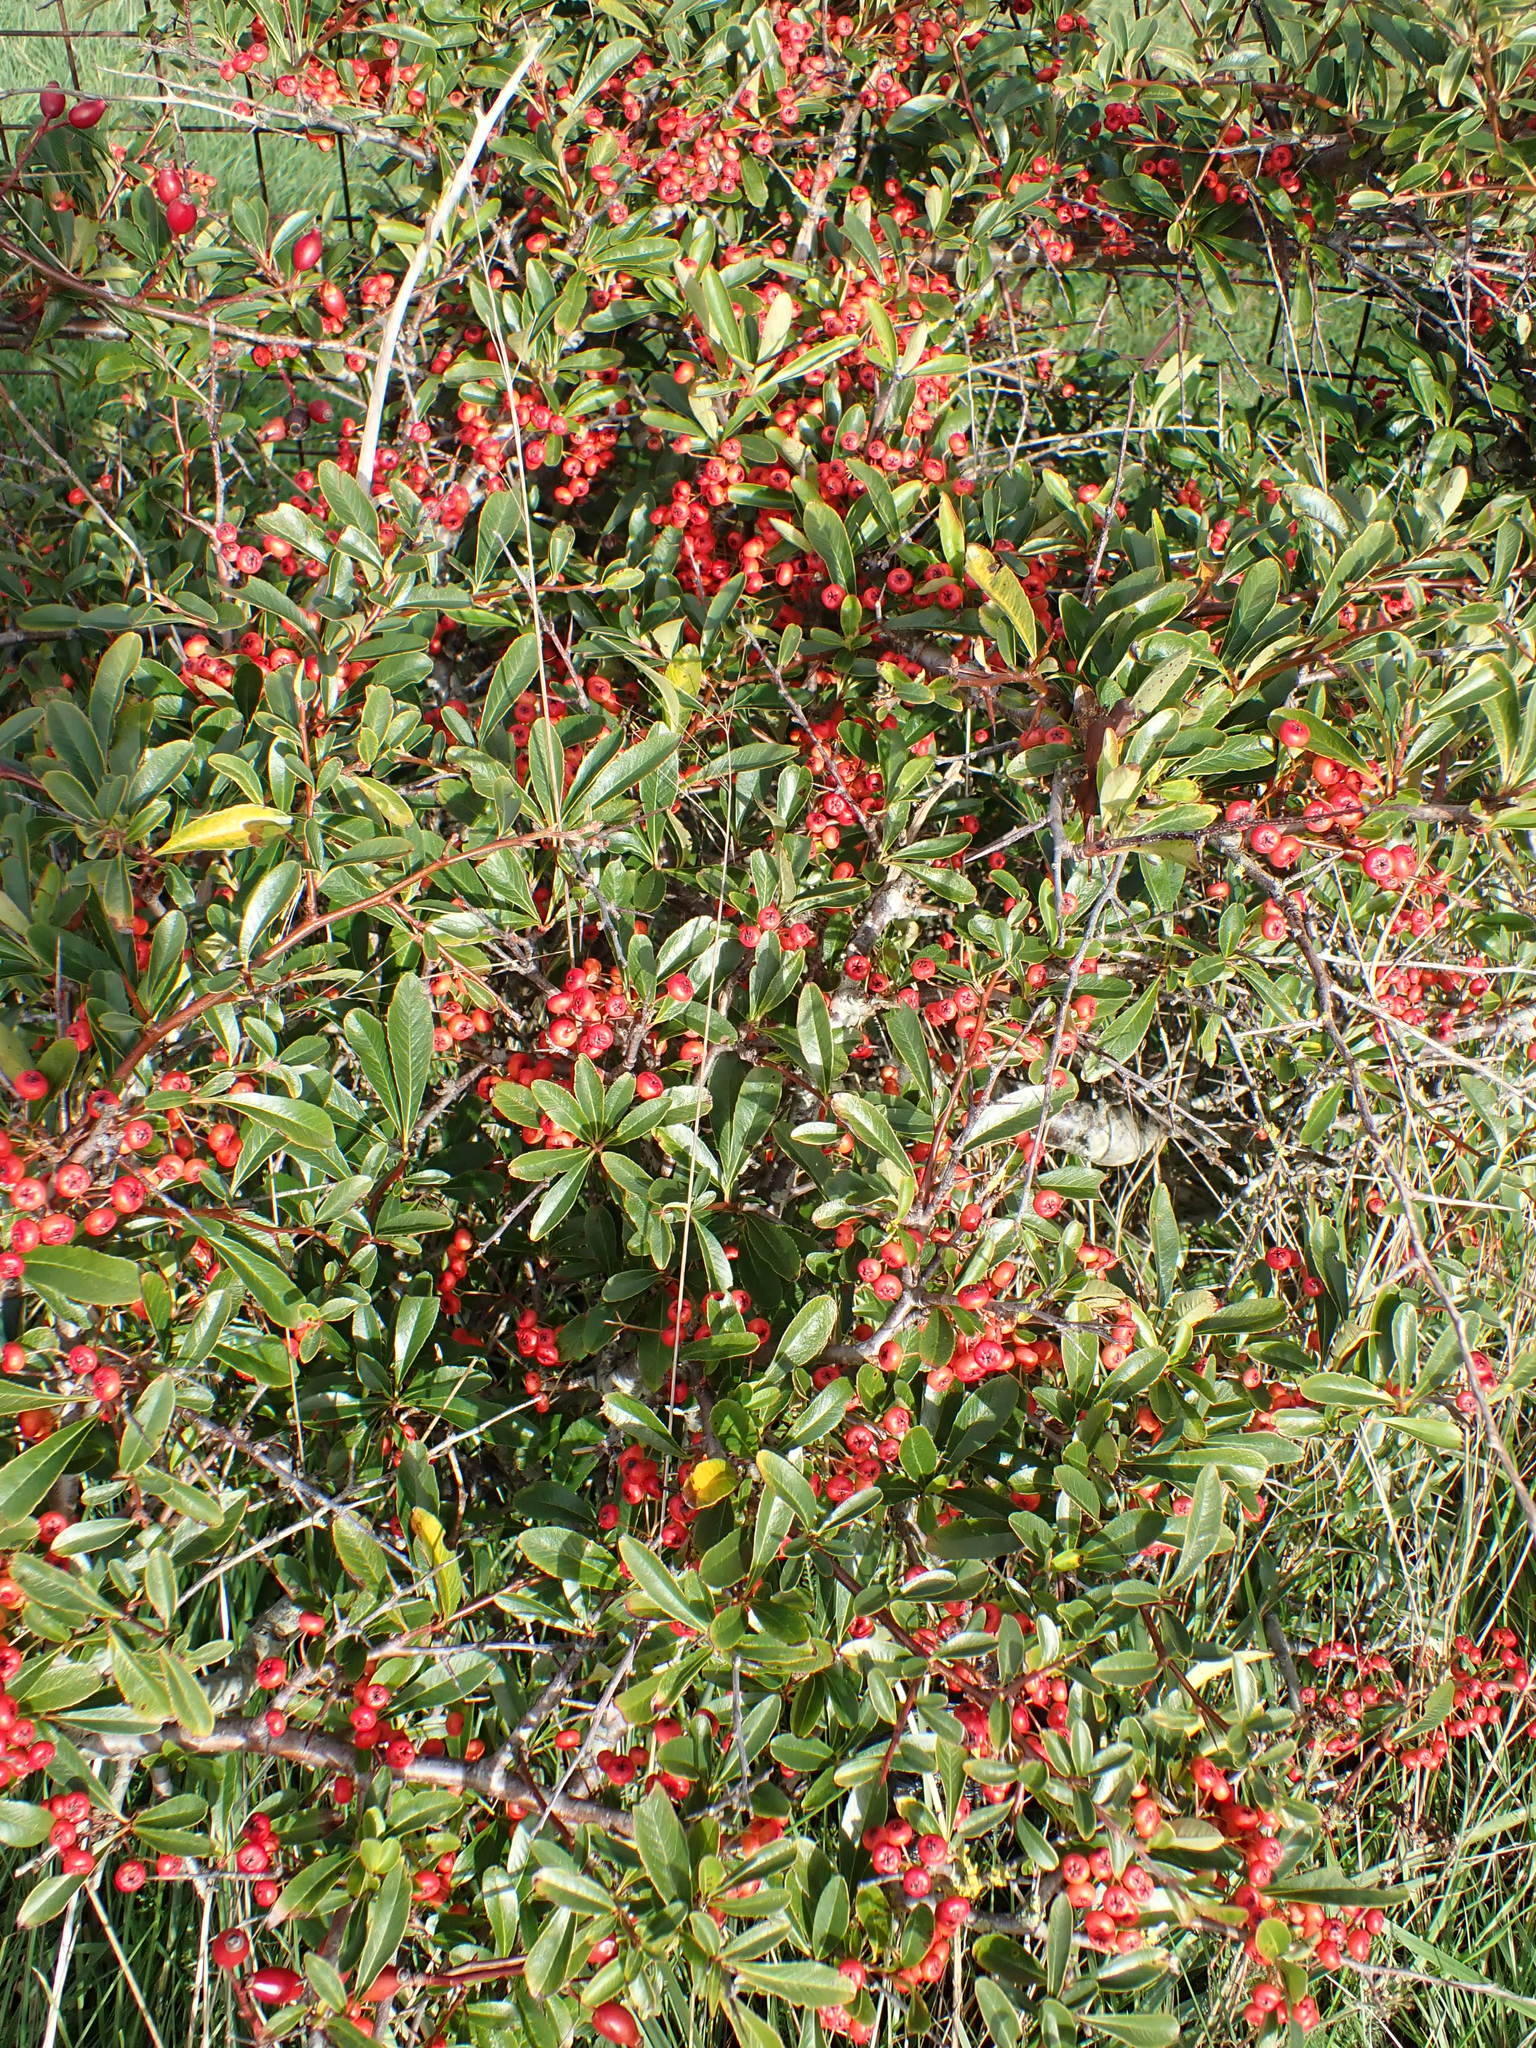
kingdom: Plantae
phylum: Tracheophyta
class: Magnoliopsida
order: Rosales
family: Rosaceae
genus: Pyracantha
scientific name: Pyracantha coccinea
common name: Firethorn
